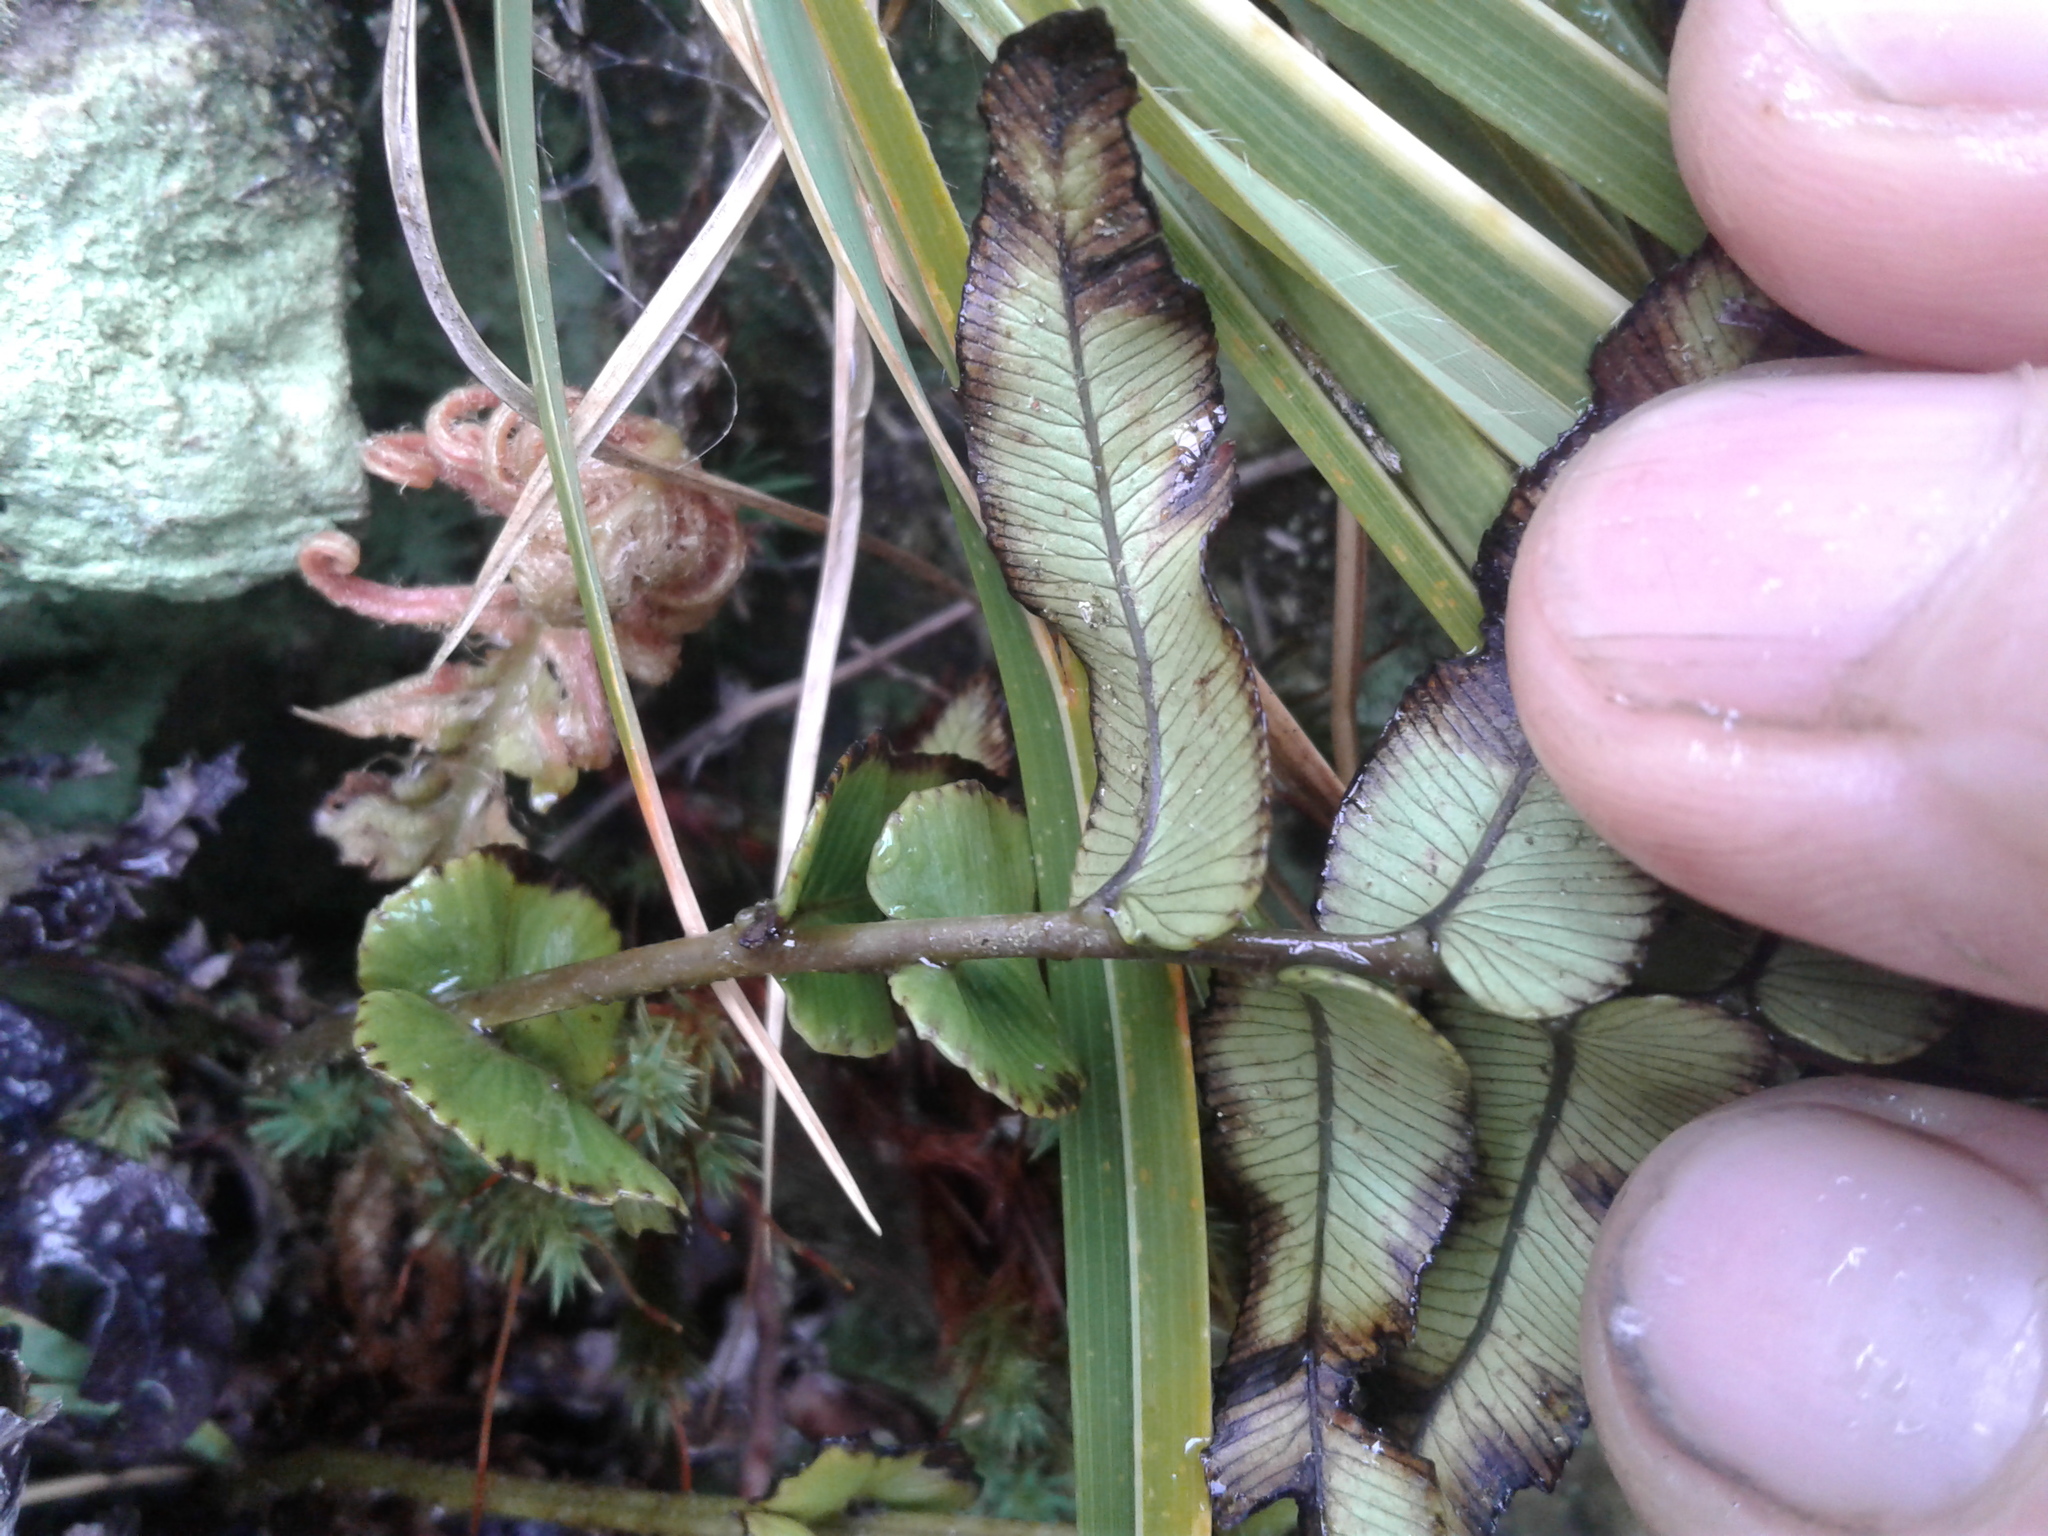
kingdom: Plantae
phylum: Tracheophyta
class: Polypodiopsida
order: Polypodiales
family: Blechnaceae
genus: Parablechnum
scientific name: Parablechnum novae-zelandiae
